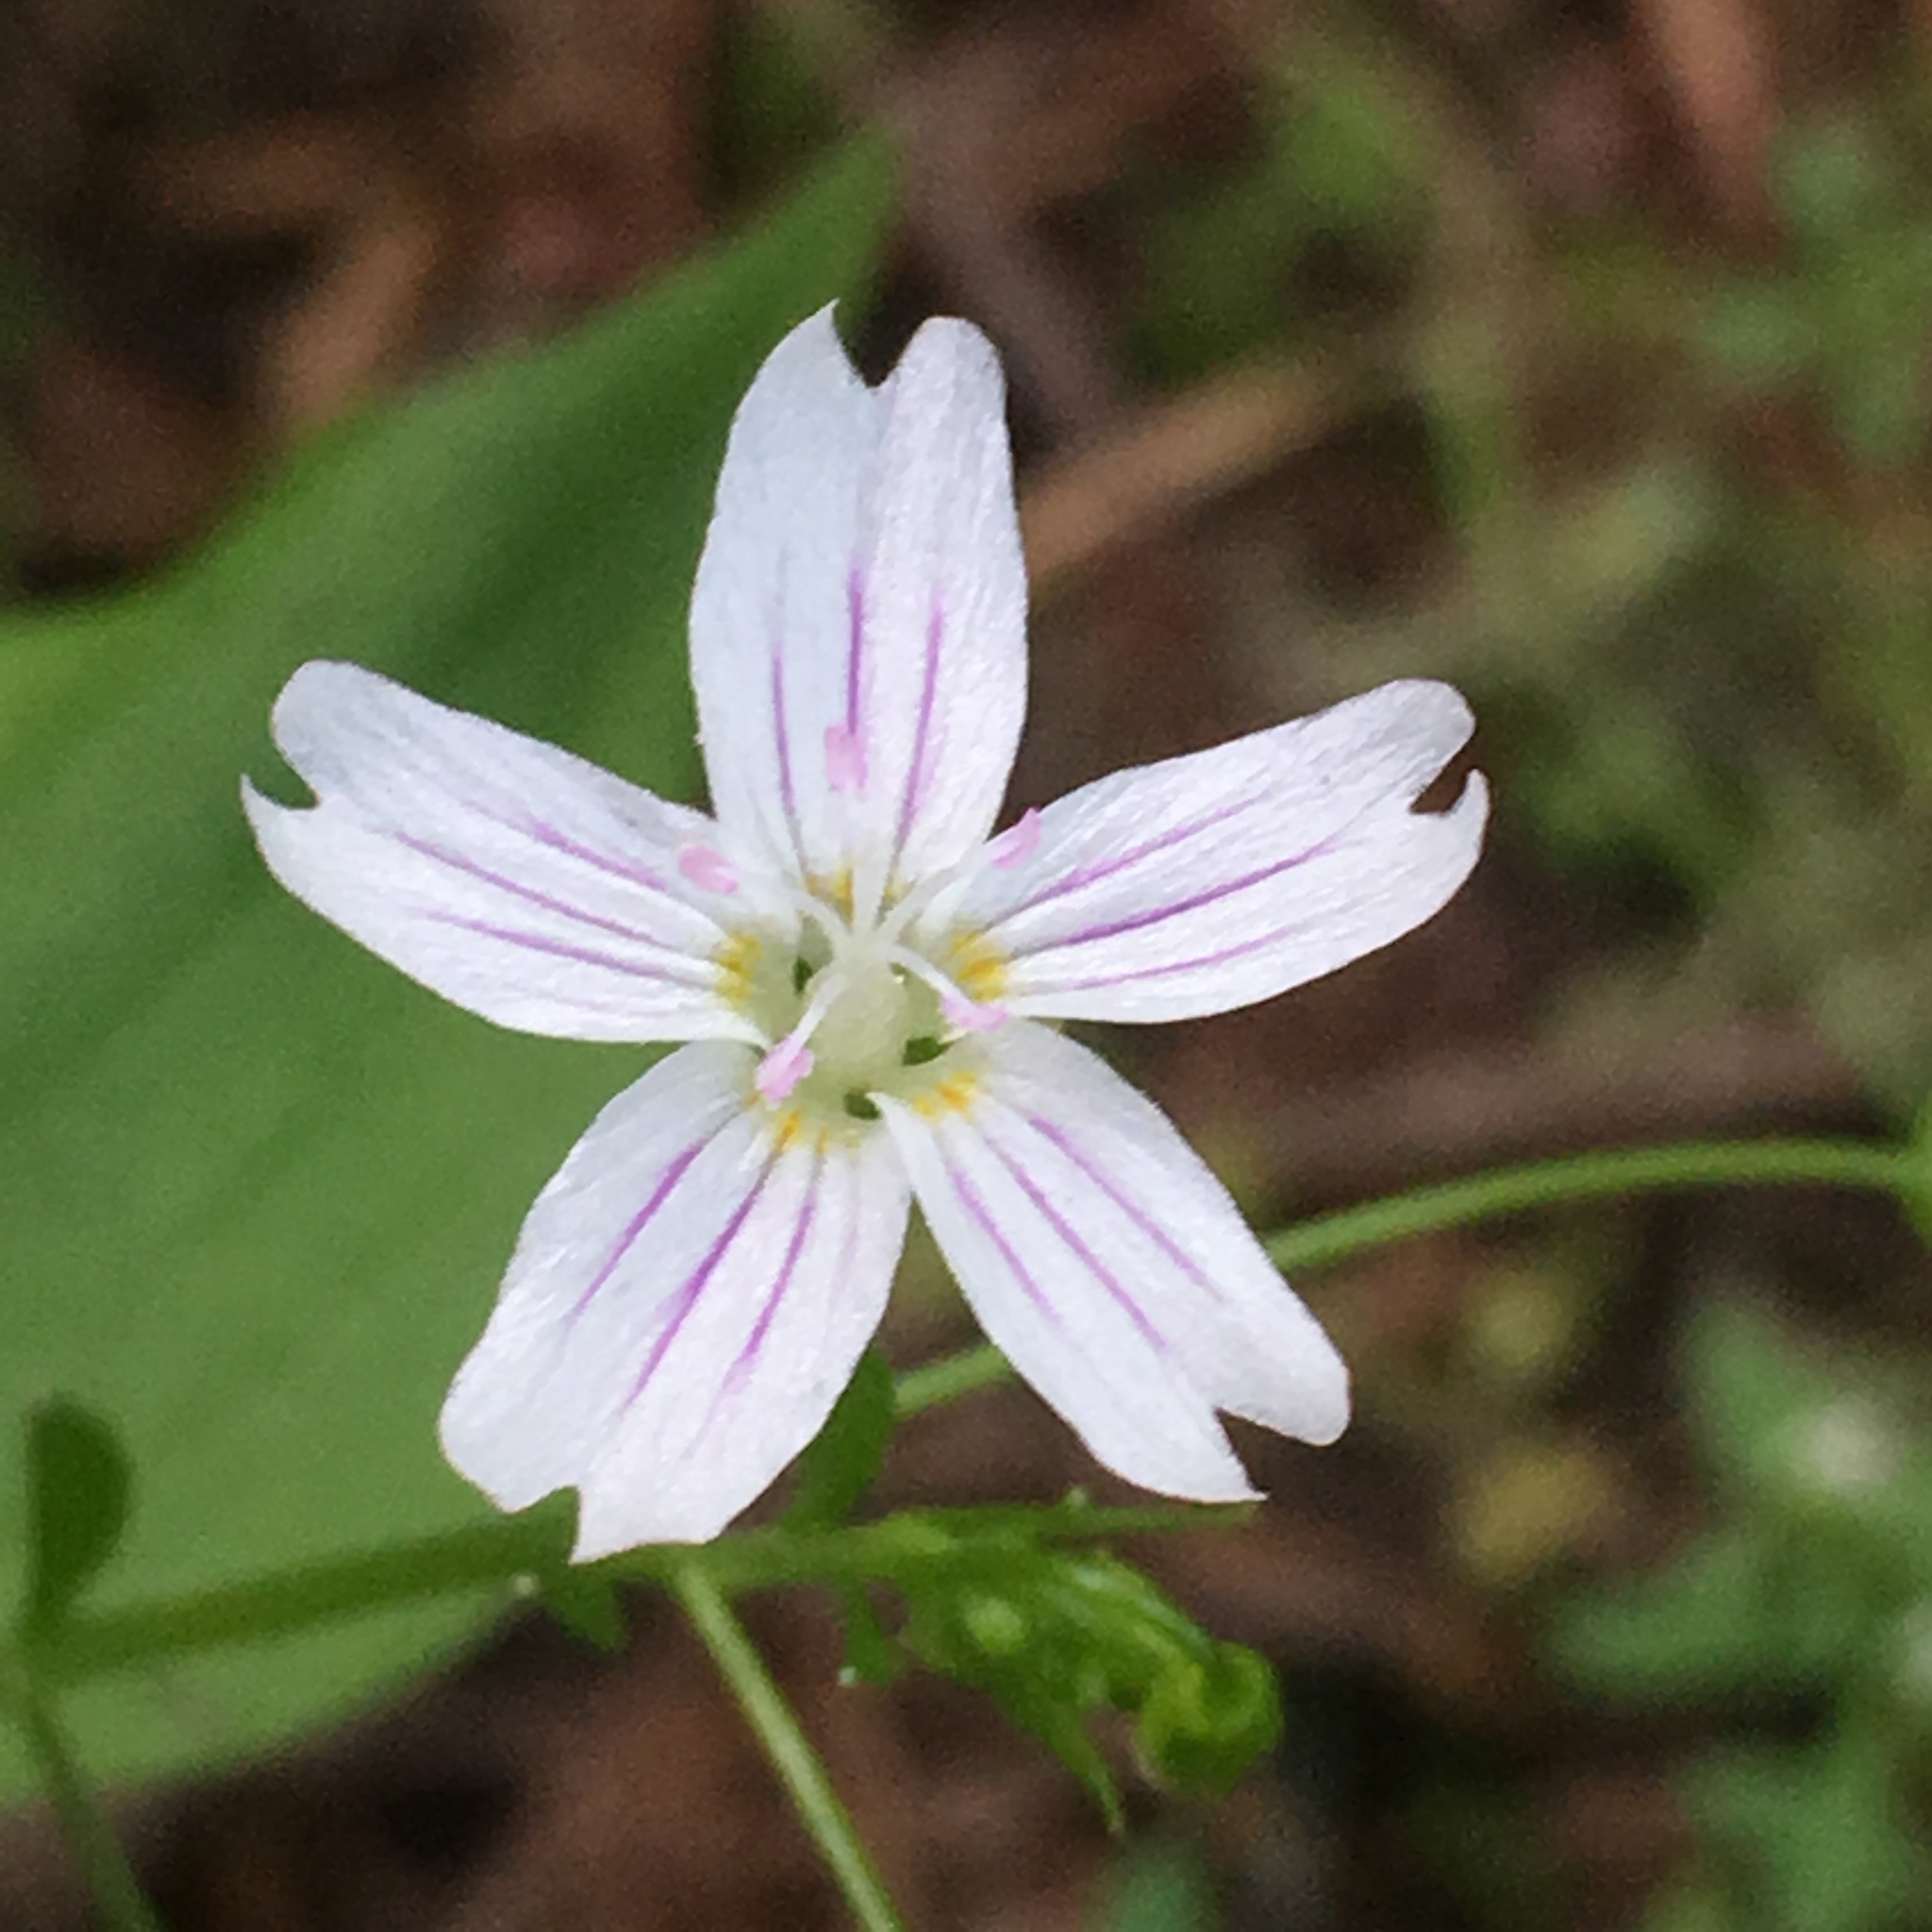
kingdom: Plantae
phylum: Tracheophyta
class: Magnoliopsida
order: Caryophyllales
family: Montiaceae
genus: Claytonia
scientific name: Claytonia sibirica
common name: Pink purslane
